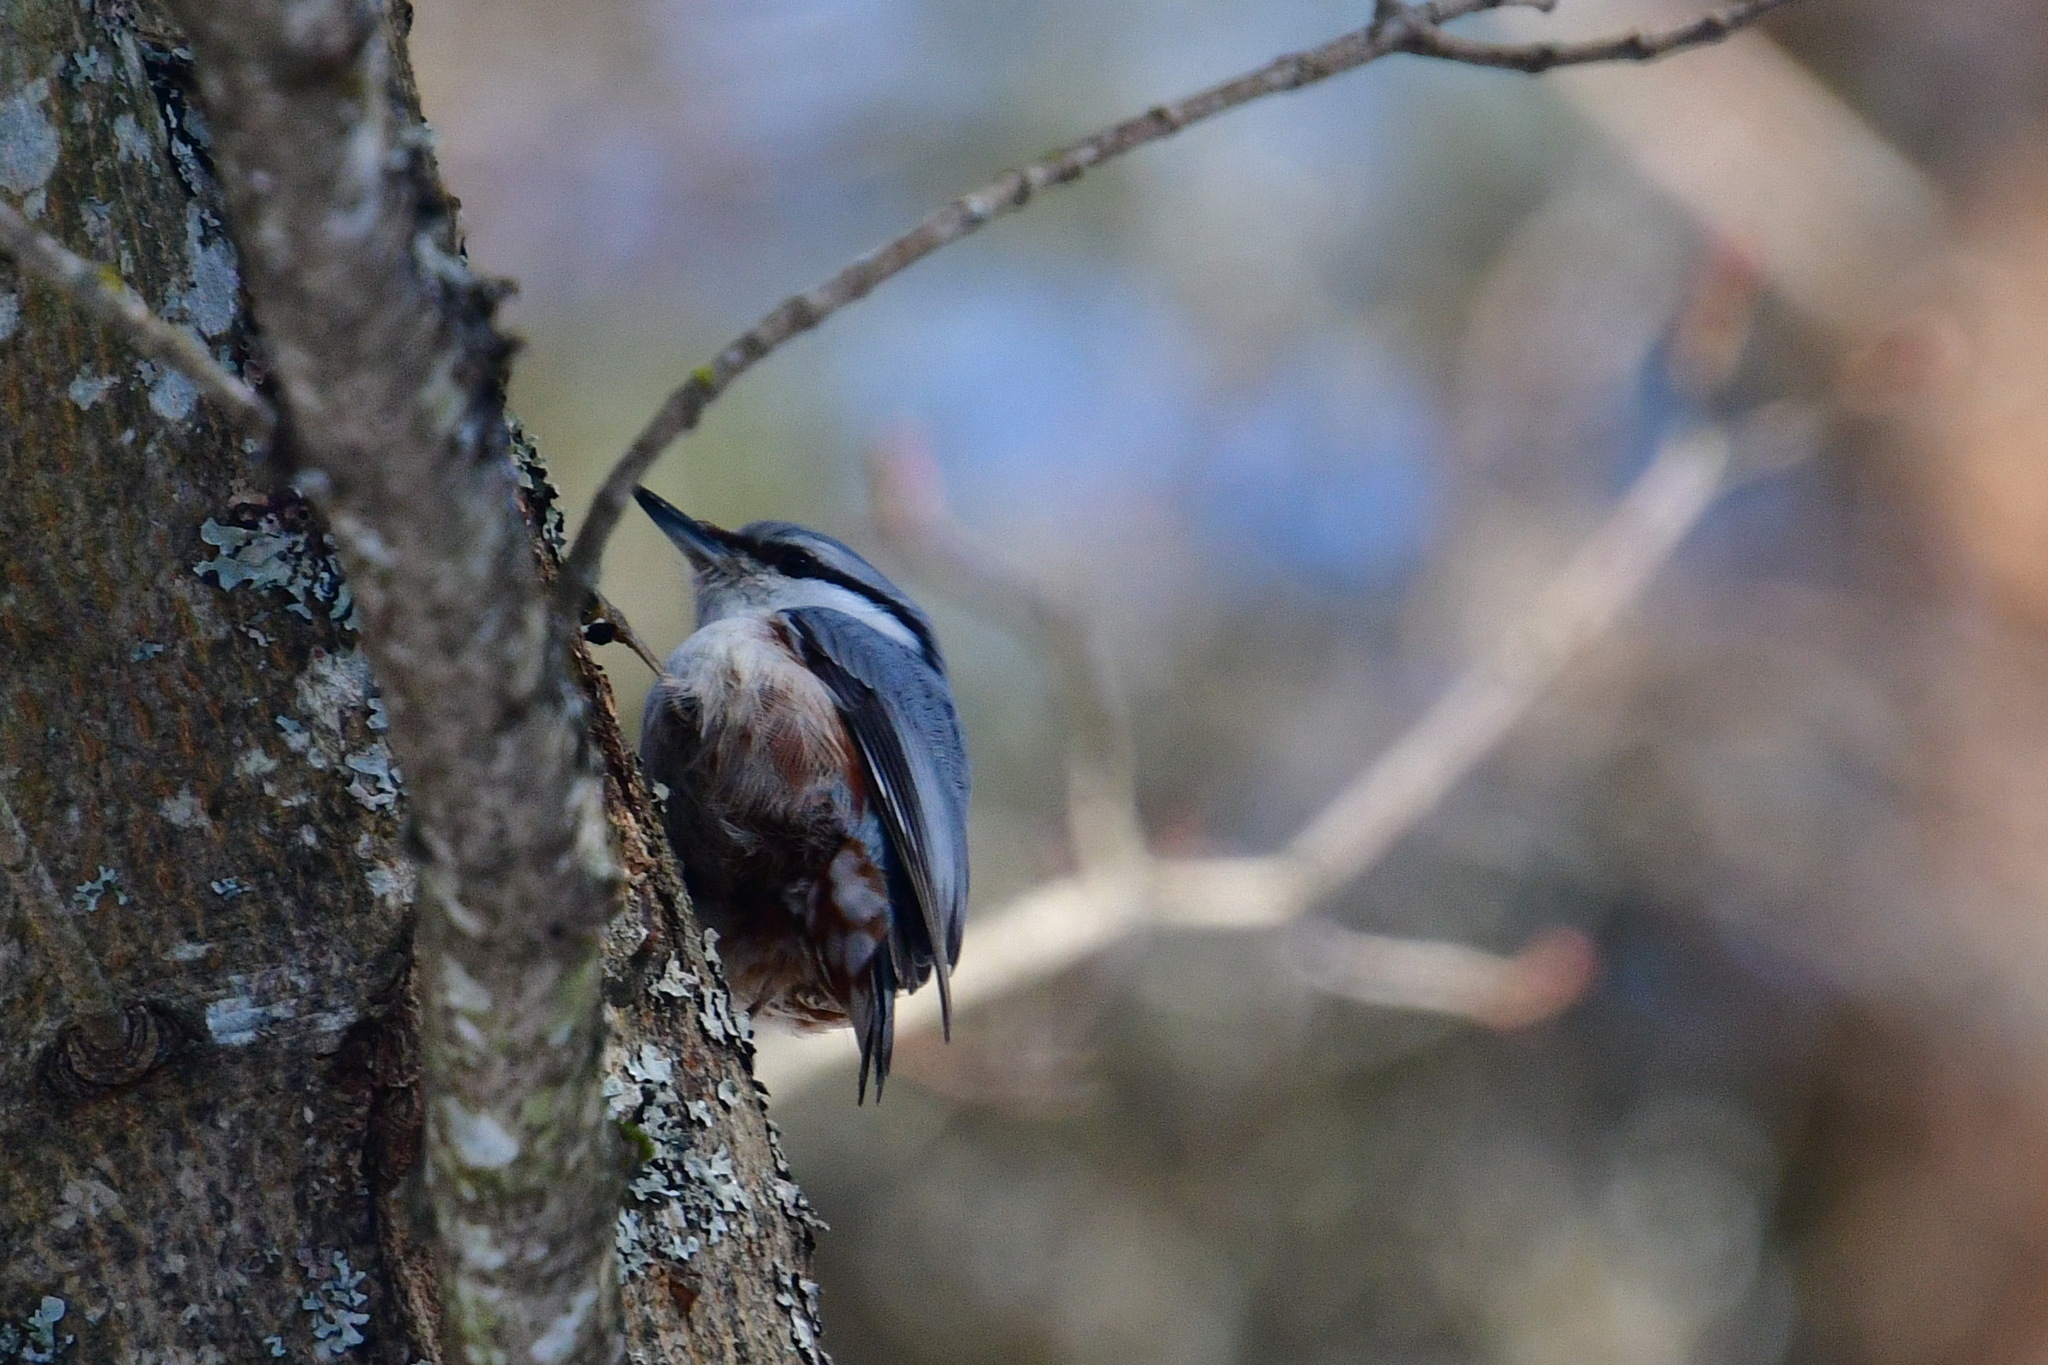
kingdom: Animalia
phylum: Chordata
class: Aves
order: Passeriformes
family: Sittidae
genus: Sitta
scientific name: Sitta europaea
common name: Eurasian nuthatch
